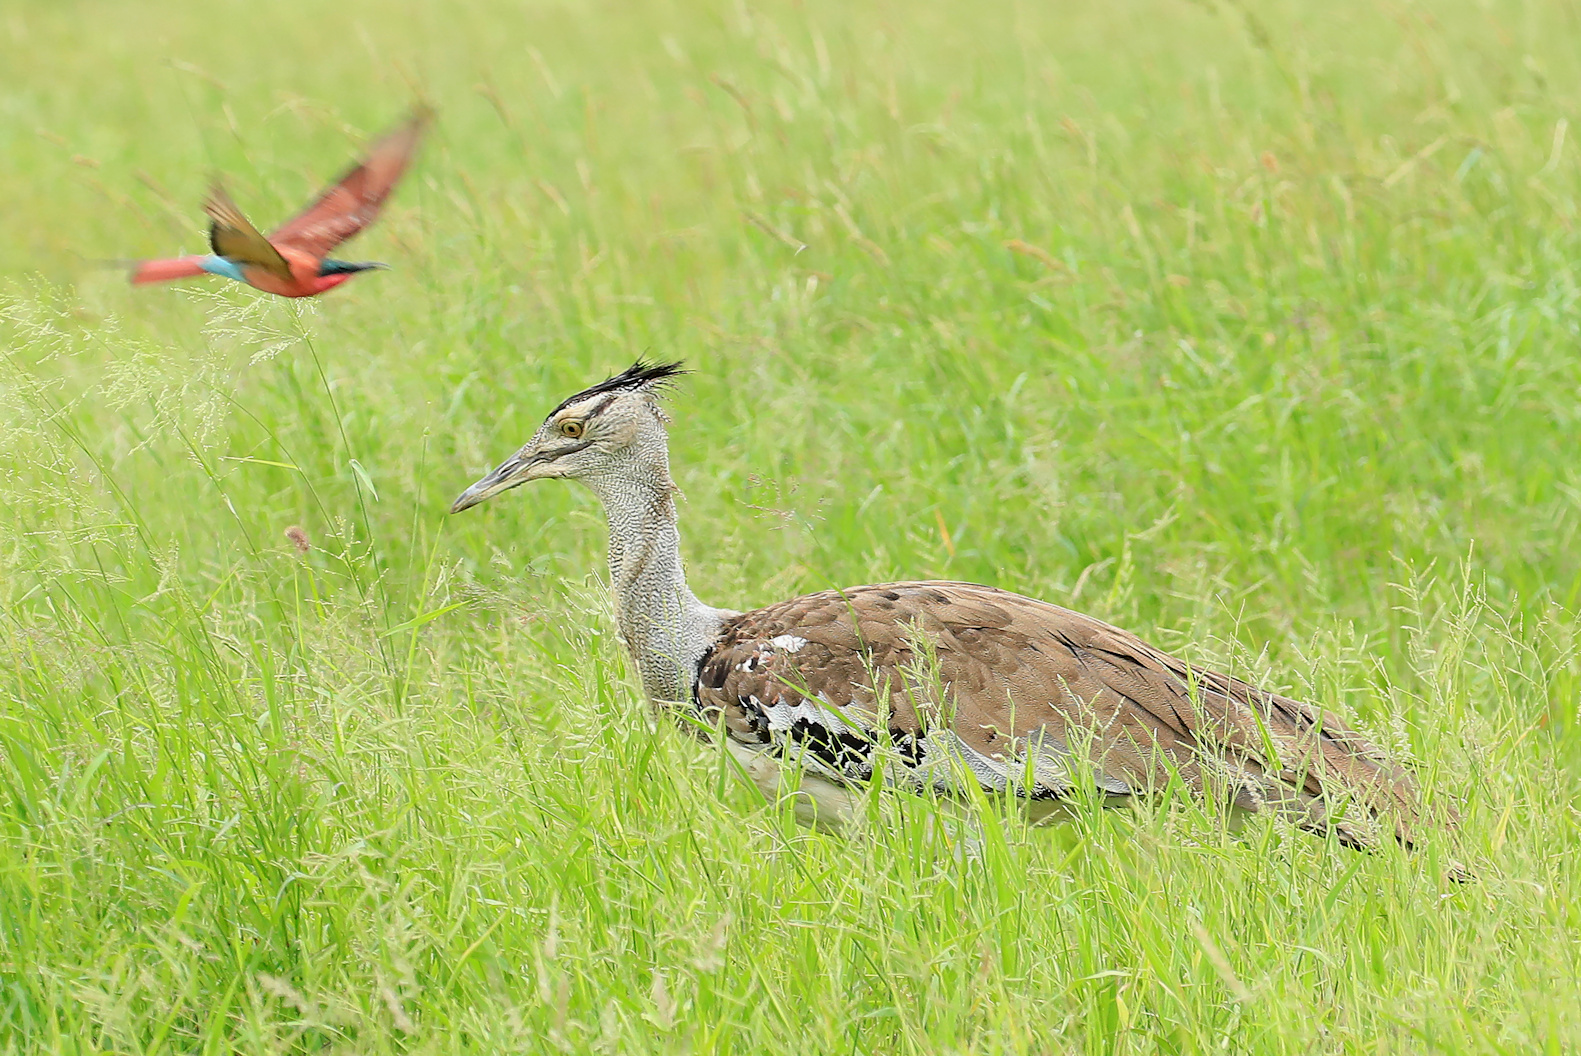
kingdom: Animalia
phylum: Chordata
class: Aves
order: Otidiformes
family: Otididae
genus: Ardeotis
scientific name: Ardeotis kori
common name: Kori bustard
